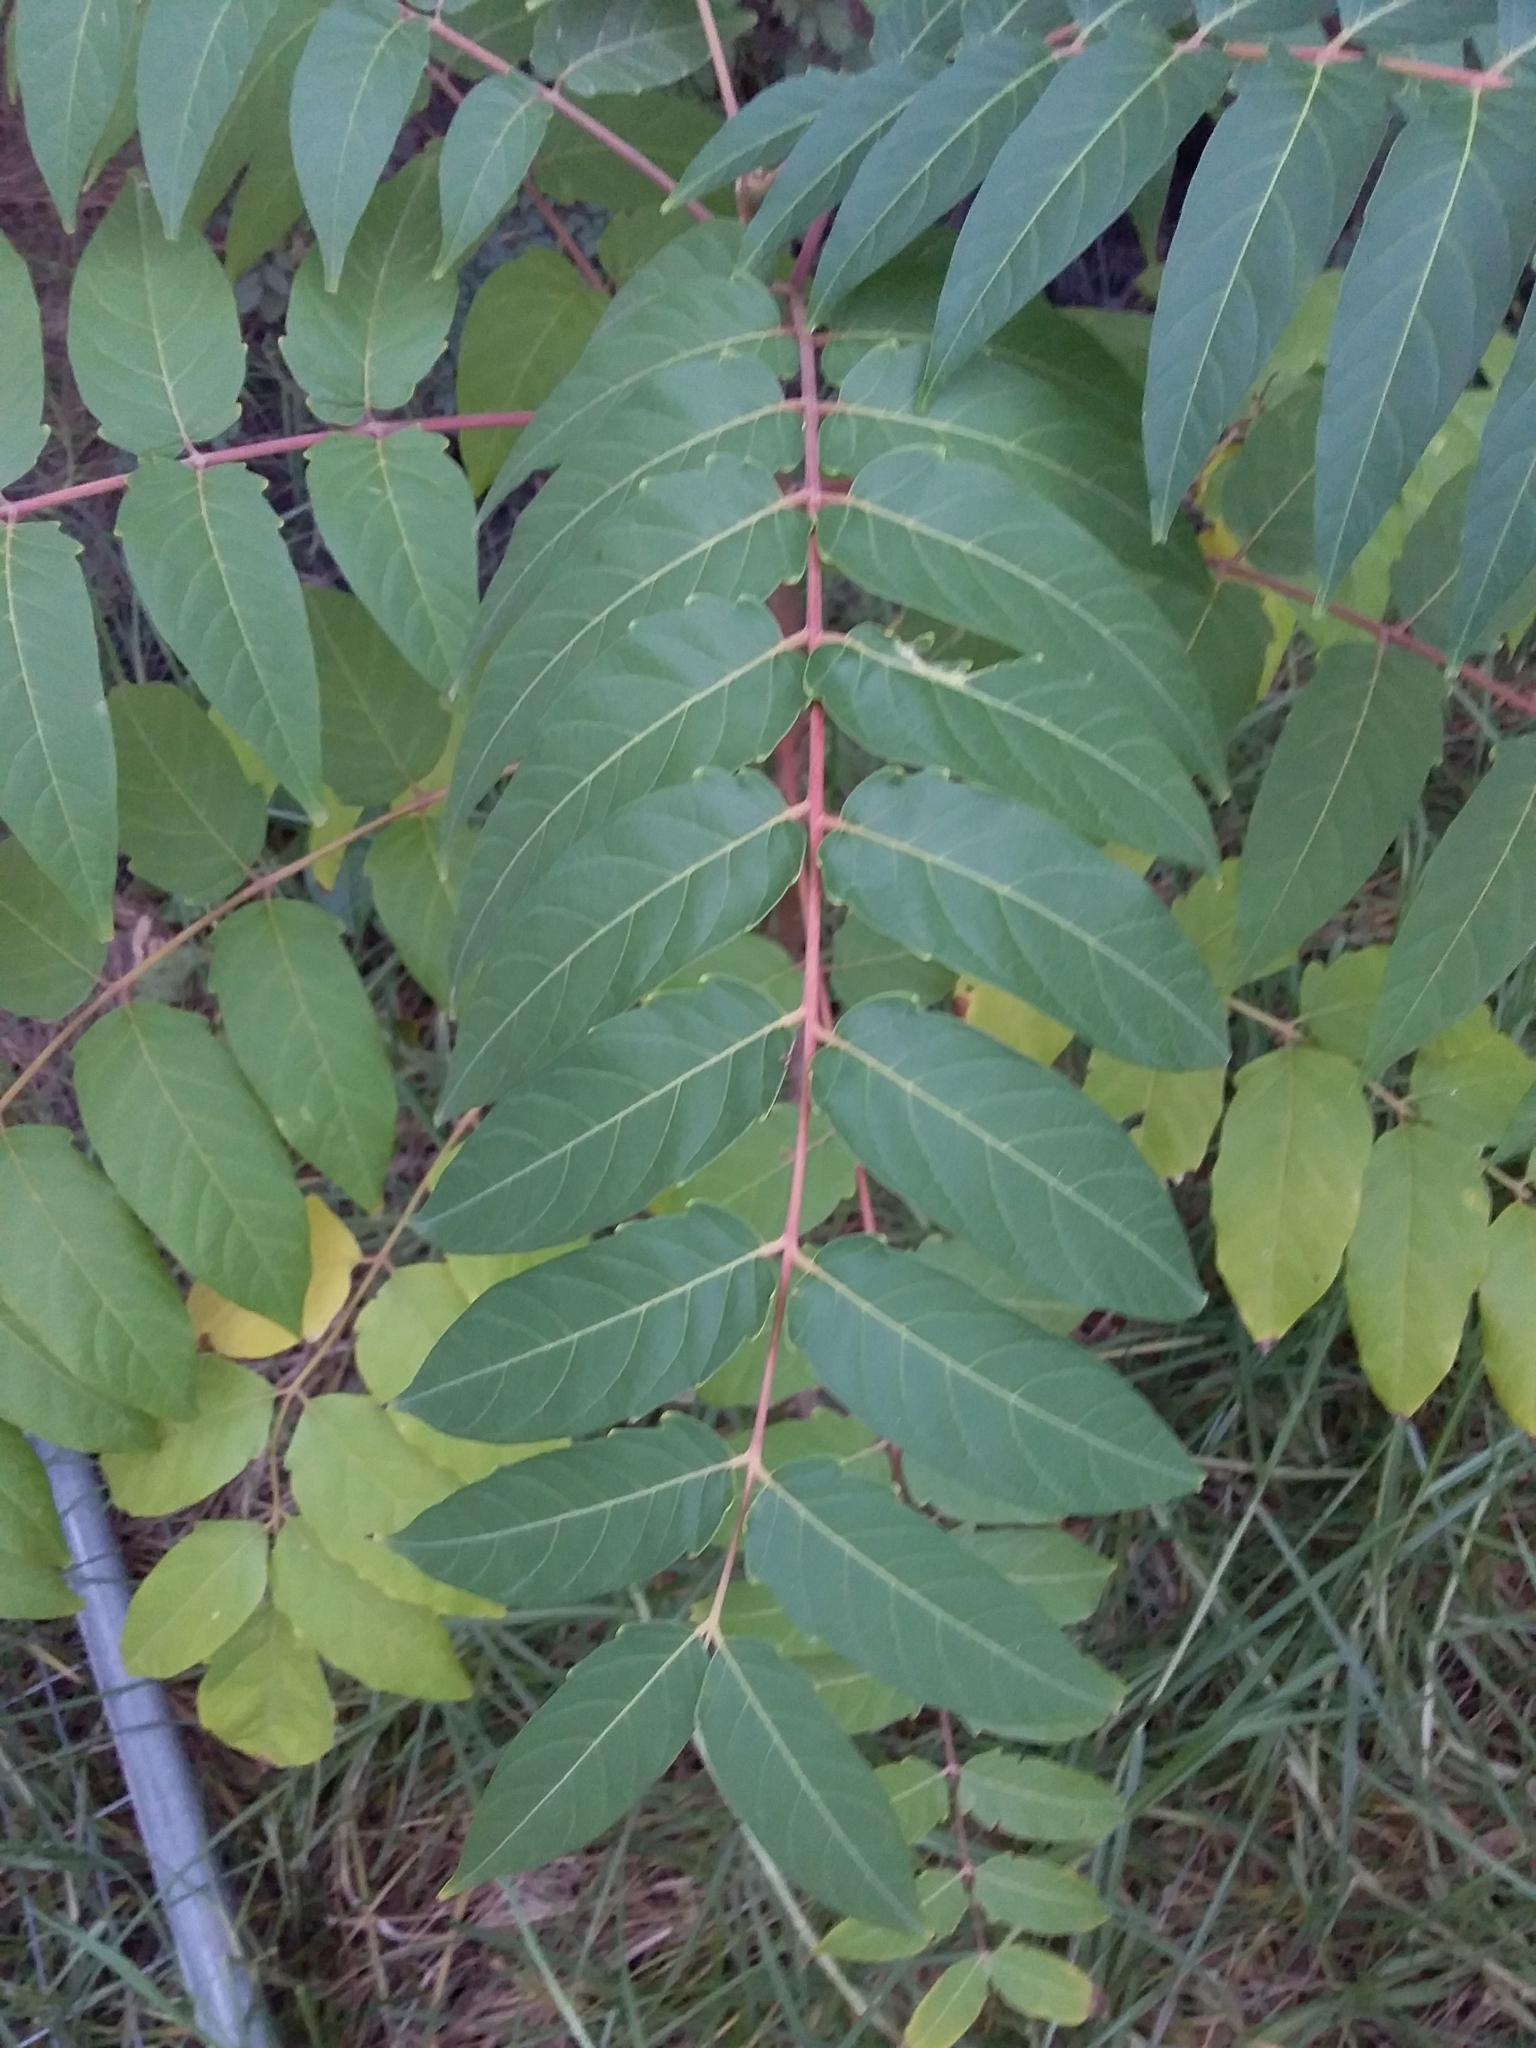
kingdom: Plantae
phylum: Tracheophyta
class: Magnoliopsida
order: Sapindales
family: Simaroubaceae
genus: Ailanthus
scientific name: Ailanthus altissima
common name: Tree-of-heaven
